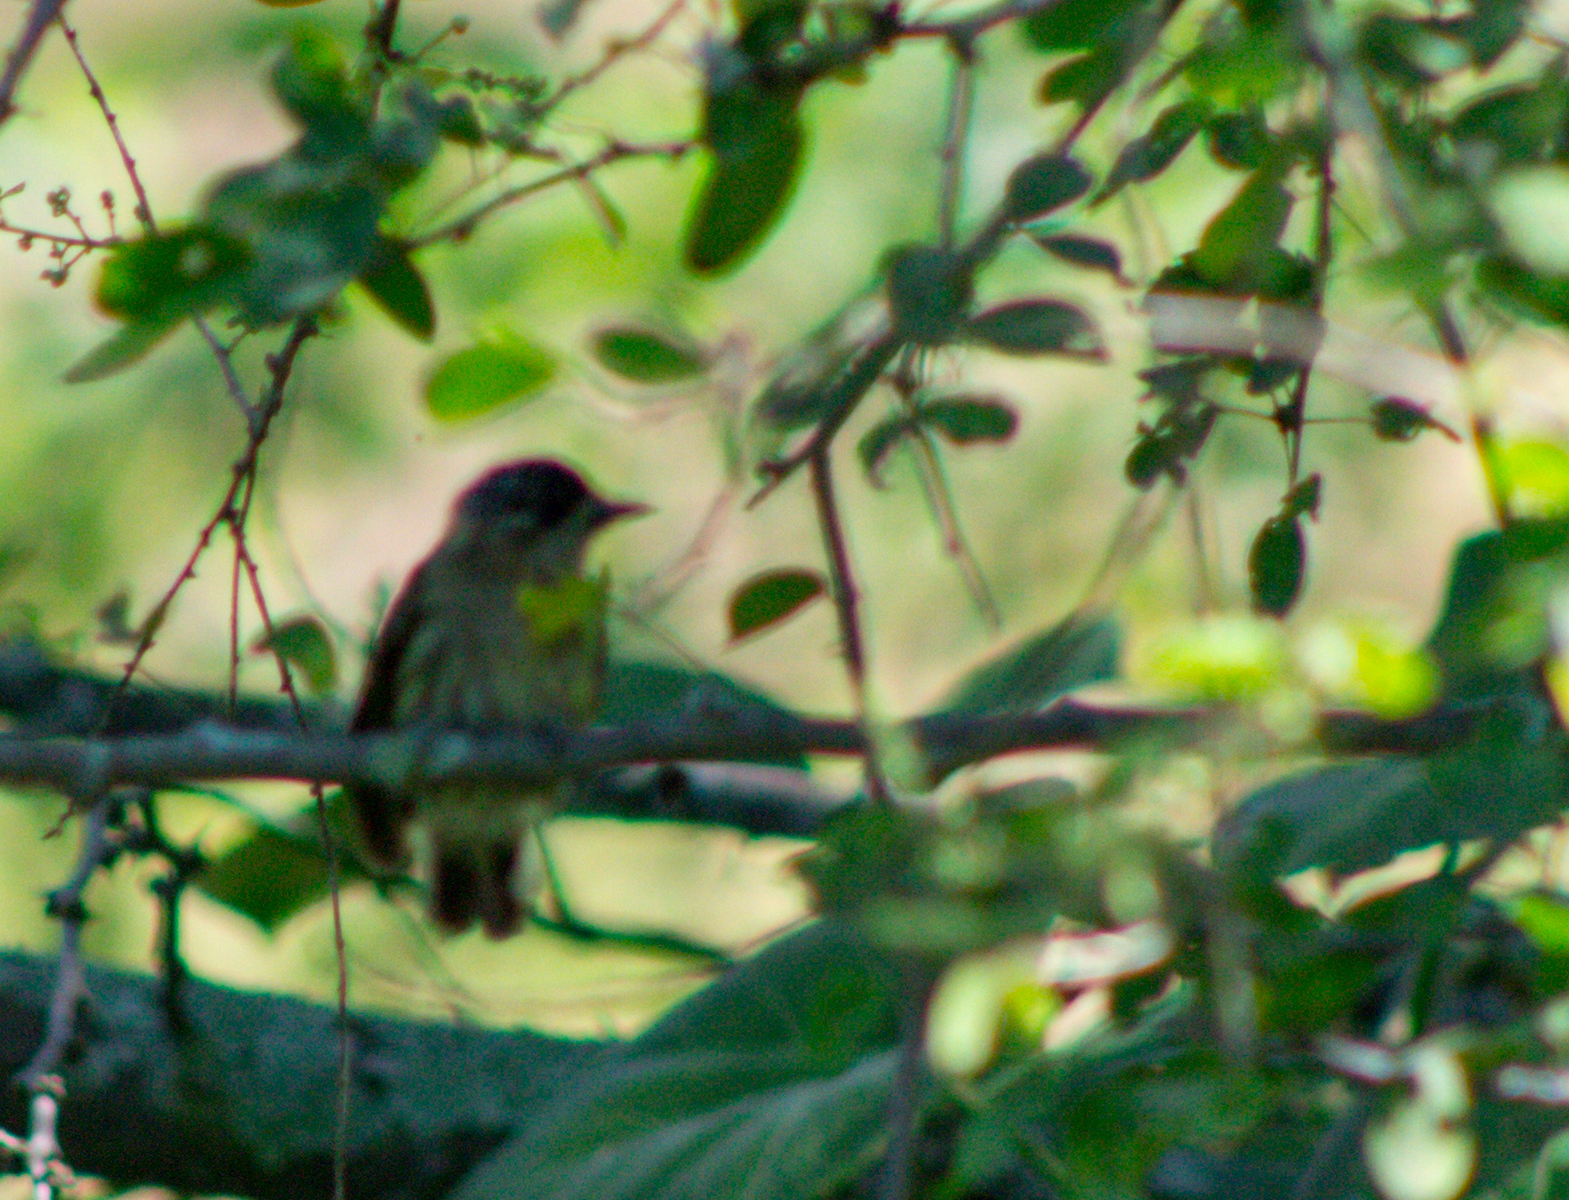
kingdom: Animalia
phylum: Chordata
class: Aves
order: Piciformes
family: Picidae
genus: Picumnus
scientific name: Picumnus olivaceus
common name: Olivaceous piculet
